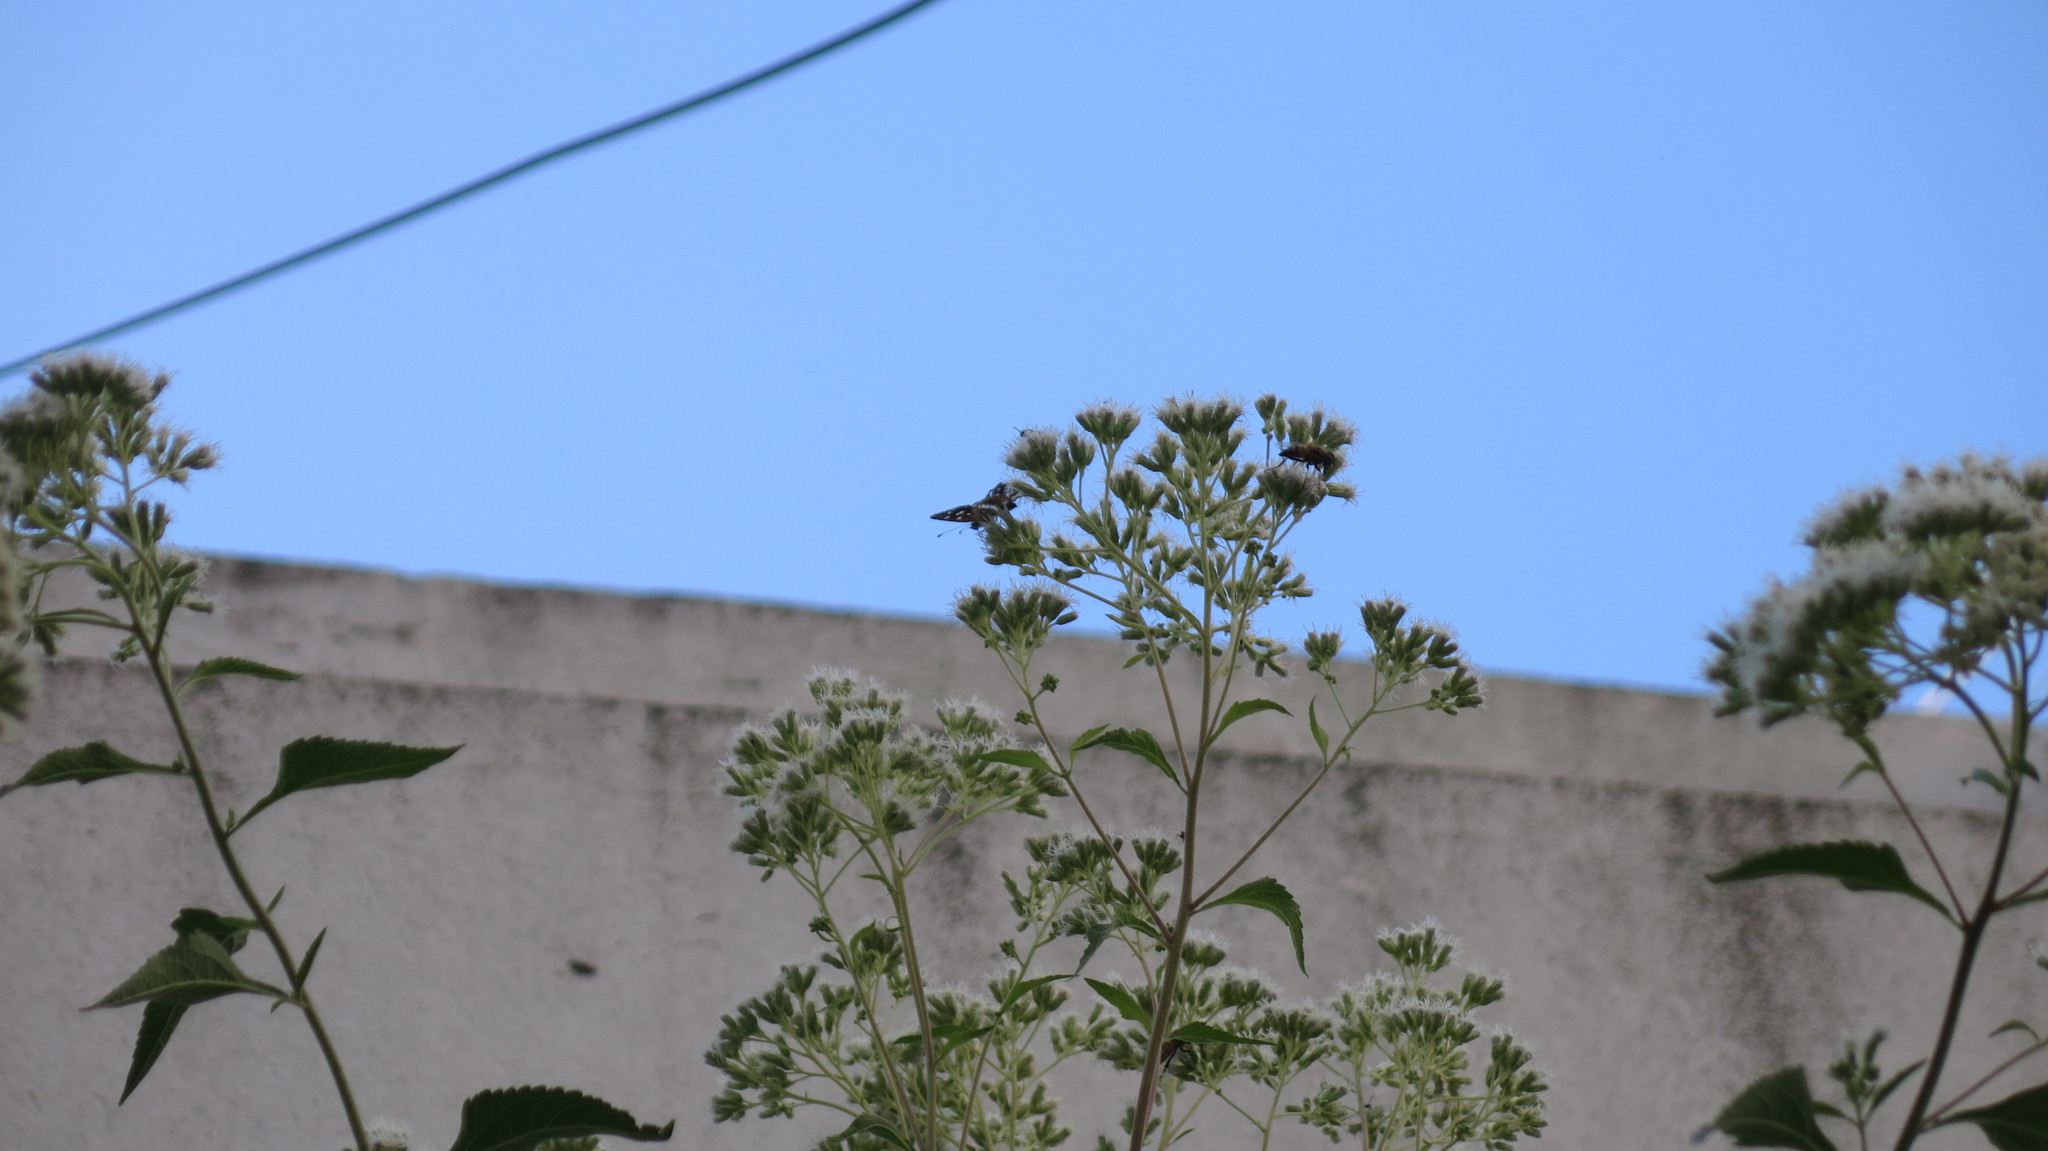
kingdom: Animalia
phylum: Arthropoda
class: Insecta
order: Lepidoptera
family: Nymphalidae
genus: Ortilia
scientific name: Ortilia ithra
